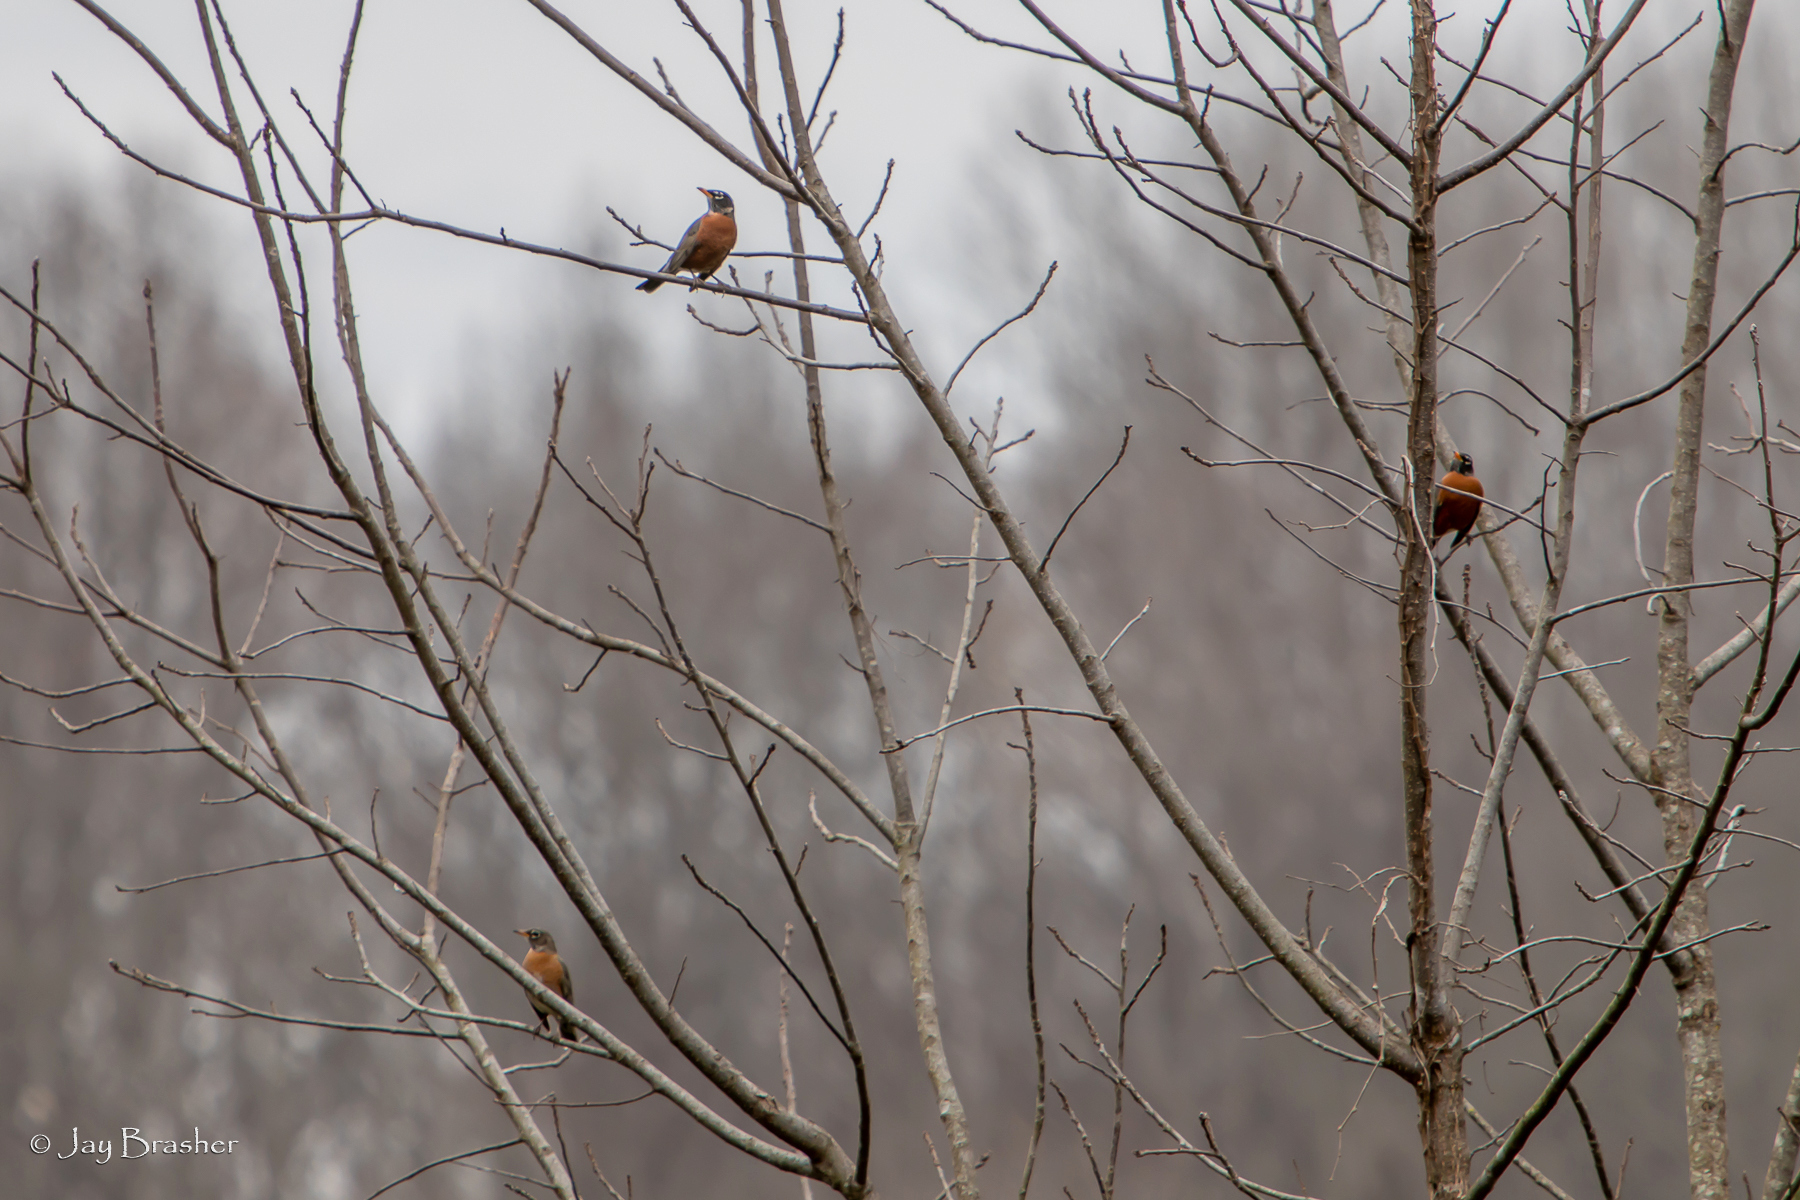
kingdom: Animalia
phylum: Chordata
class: Aves
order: Passeriformes
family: Turdidae
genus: Turdus
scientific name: Turdus migratorius
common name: American robin
